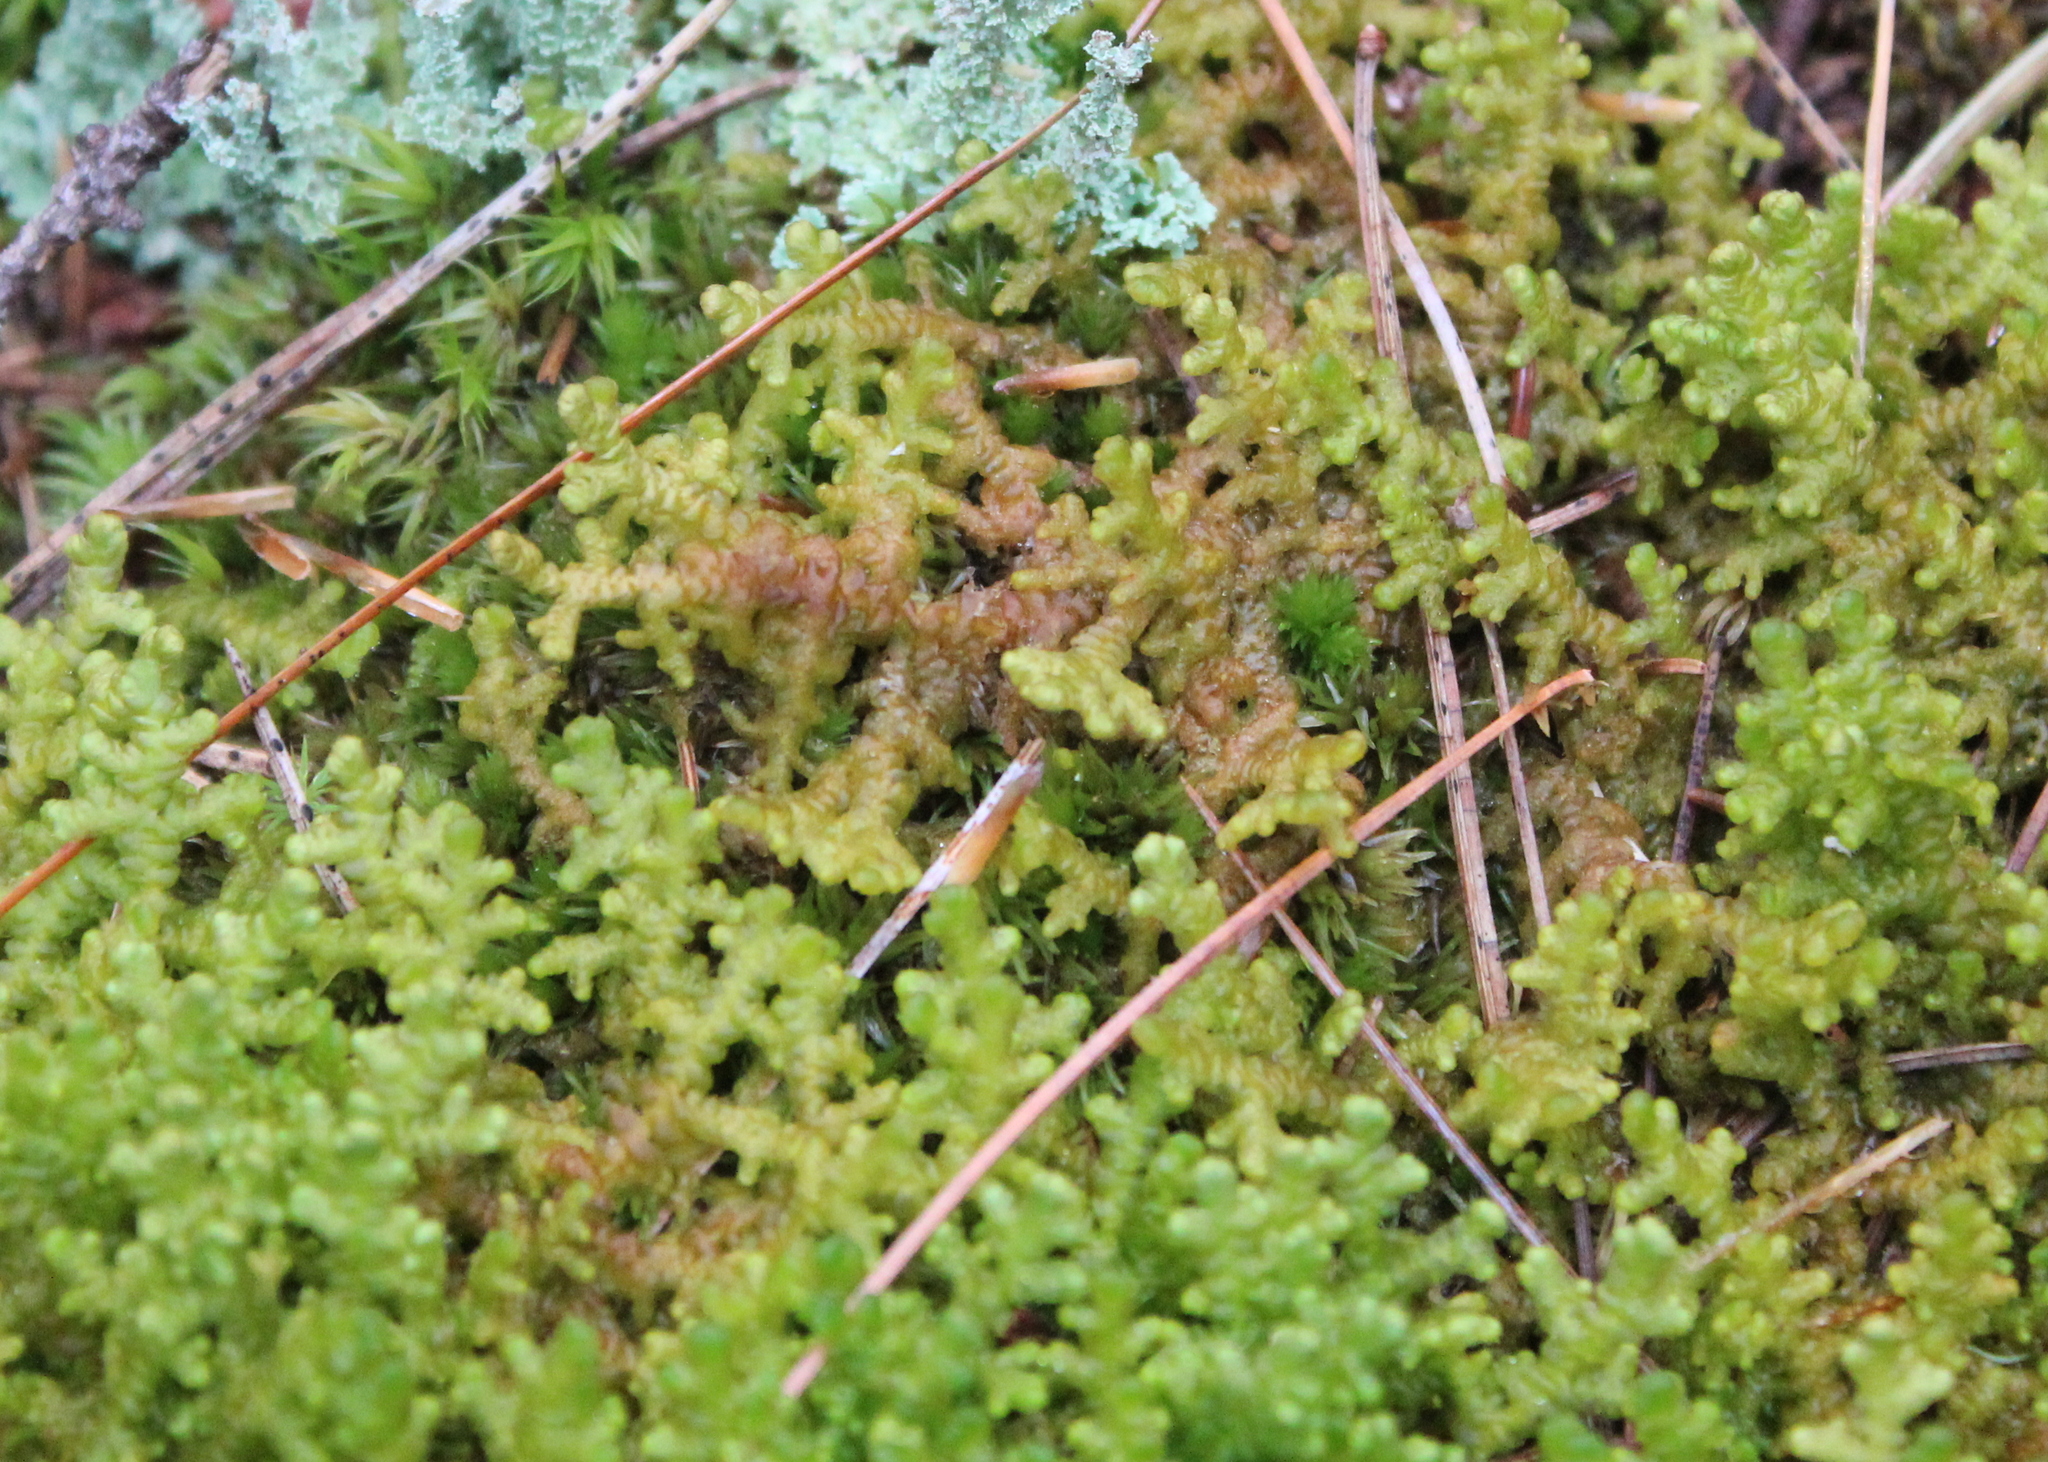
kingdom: Plantae
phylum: Marchantiophyta
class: Jungermanniopsida
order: Ptilidiales
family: Ptilidiaceae
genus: Ptilidium
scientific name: Ptilidium ciliare
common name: Ciliate fringewort
